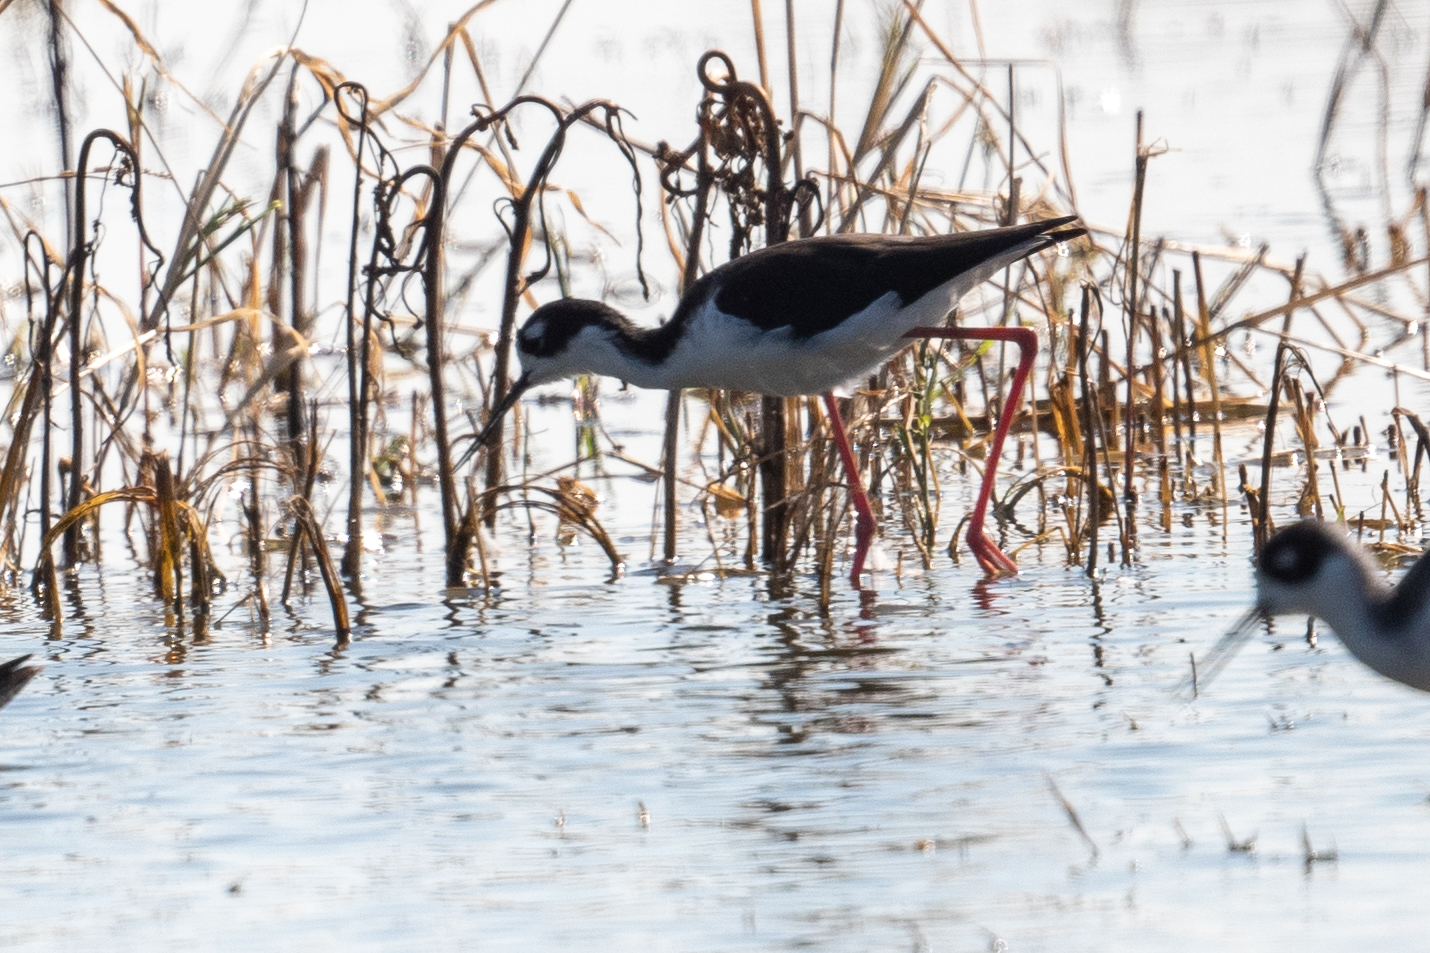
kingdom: Animalia
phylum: Chordata
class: Aves
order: Charadriiformes
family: Recurvirostridae
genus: Himantopus
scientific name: Himantopus mexicanus
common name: Black-necked stilt
